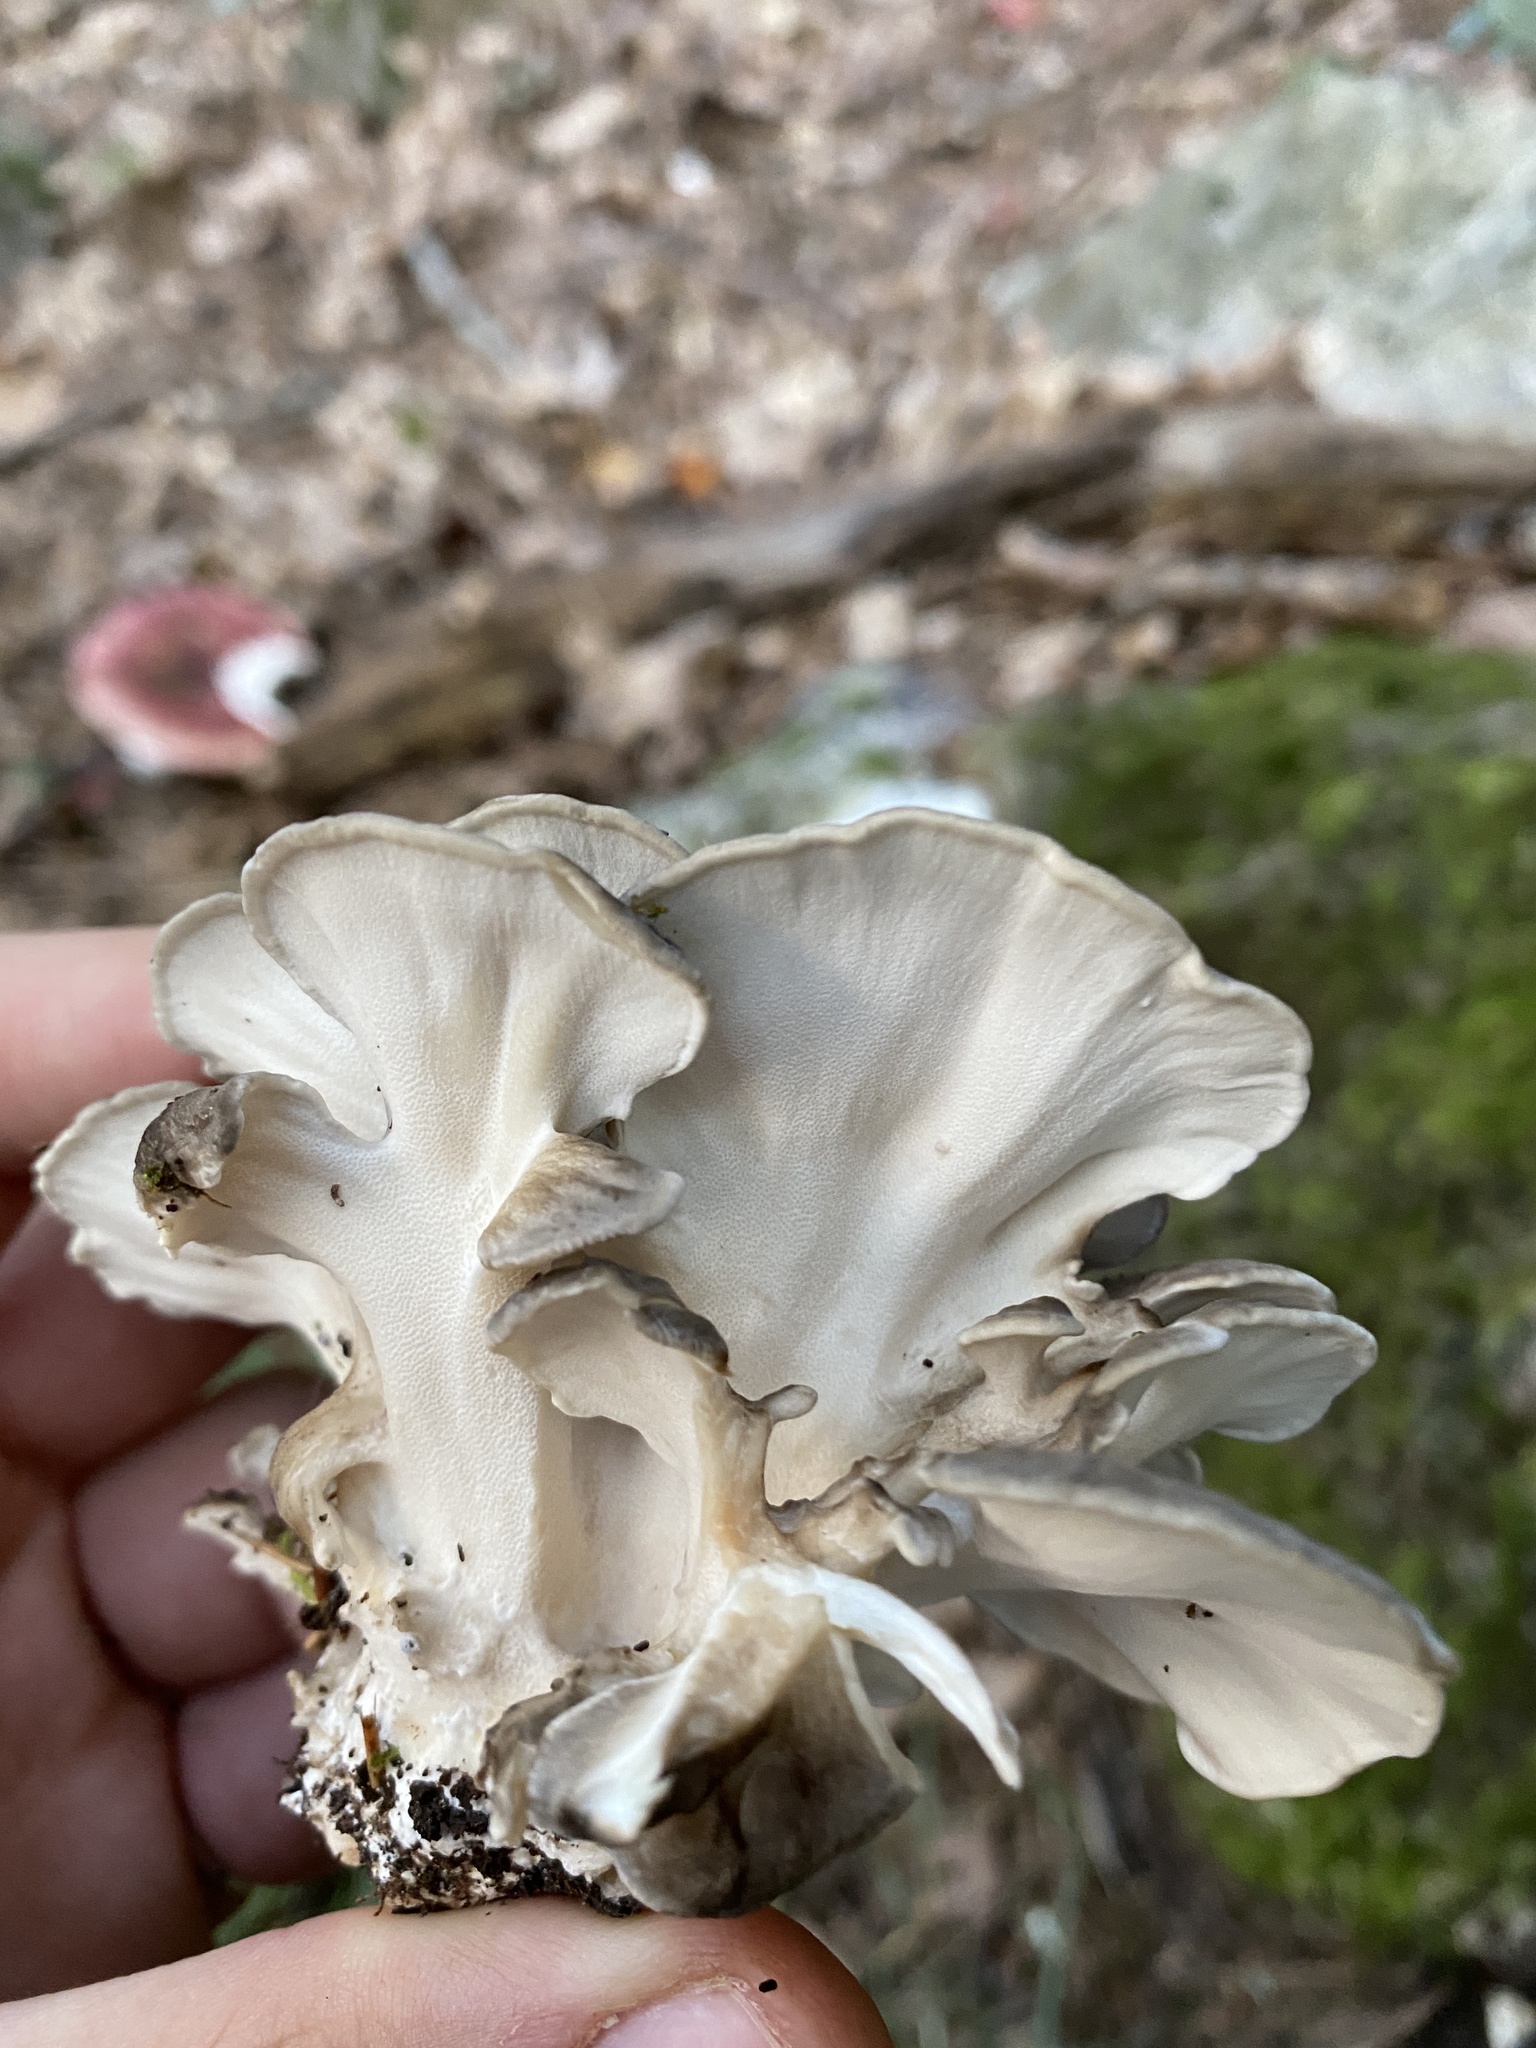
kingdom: Fungi
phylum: Basidiomycota
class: Agaricomycetes
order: Polyporales
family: Grifolaceae
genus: Grifola
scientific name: Grifola frondosa
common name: Hen of the woods
